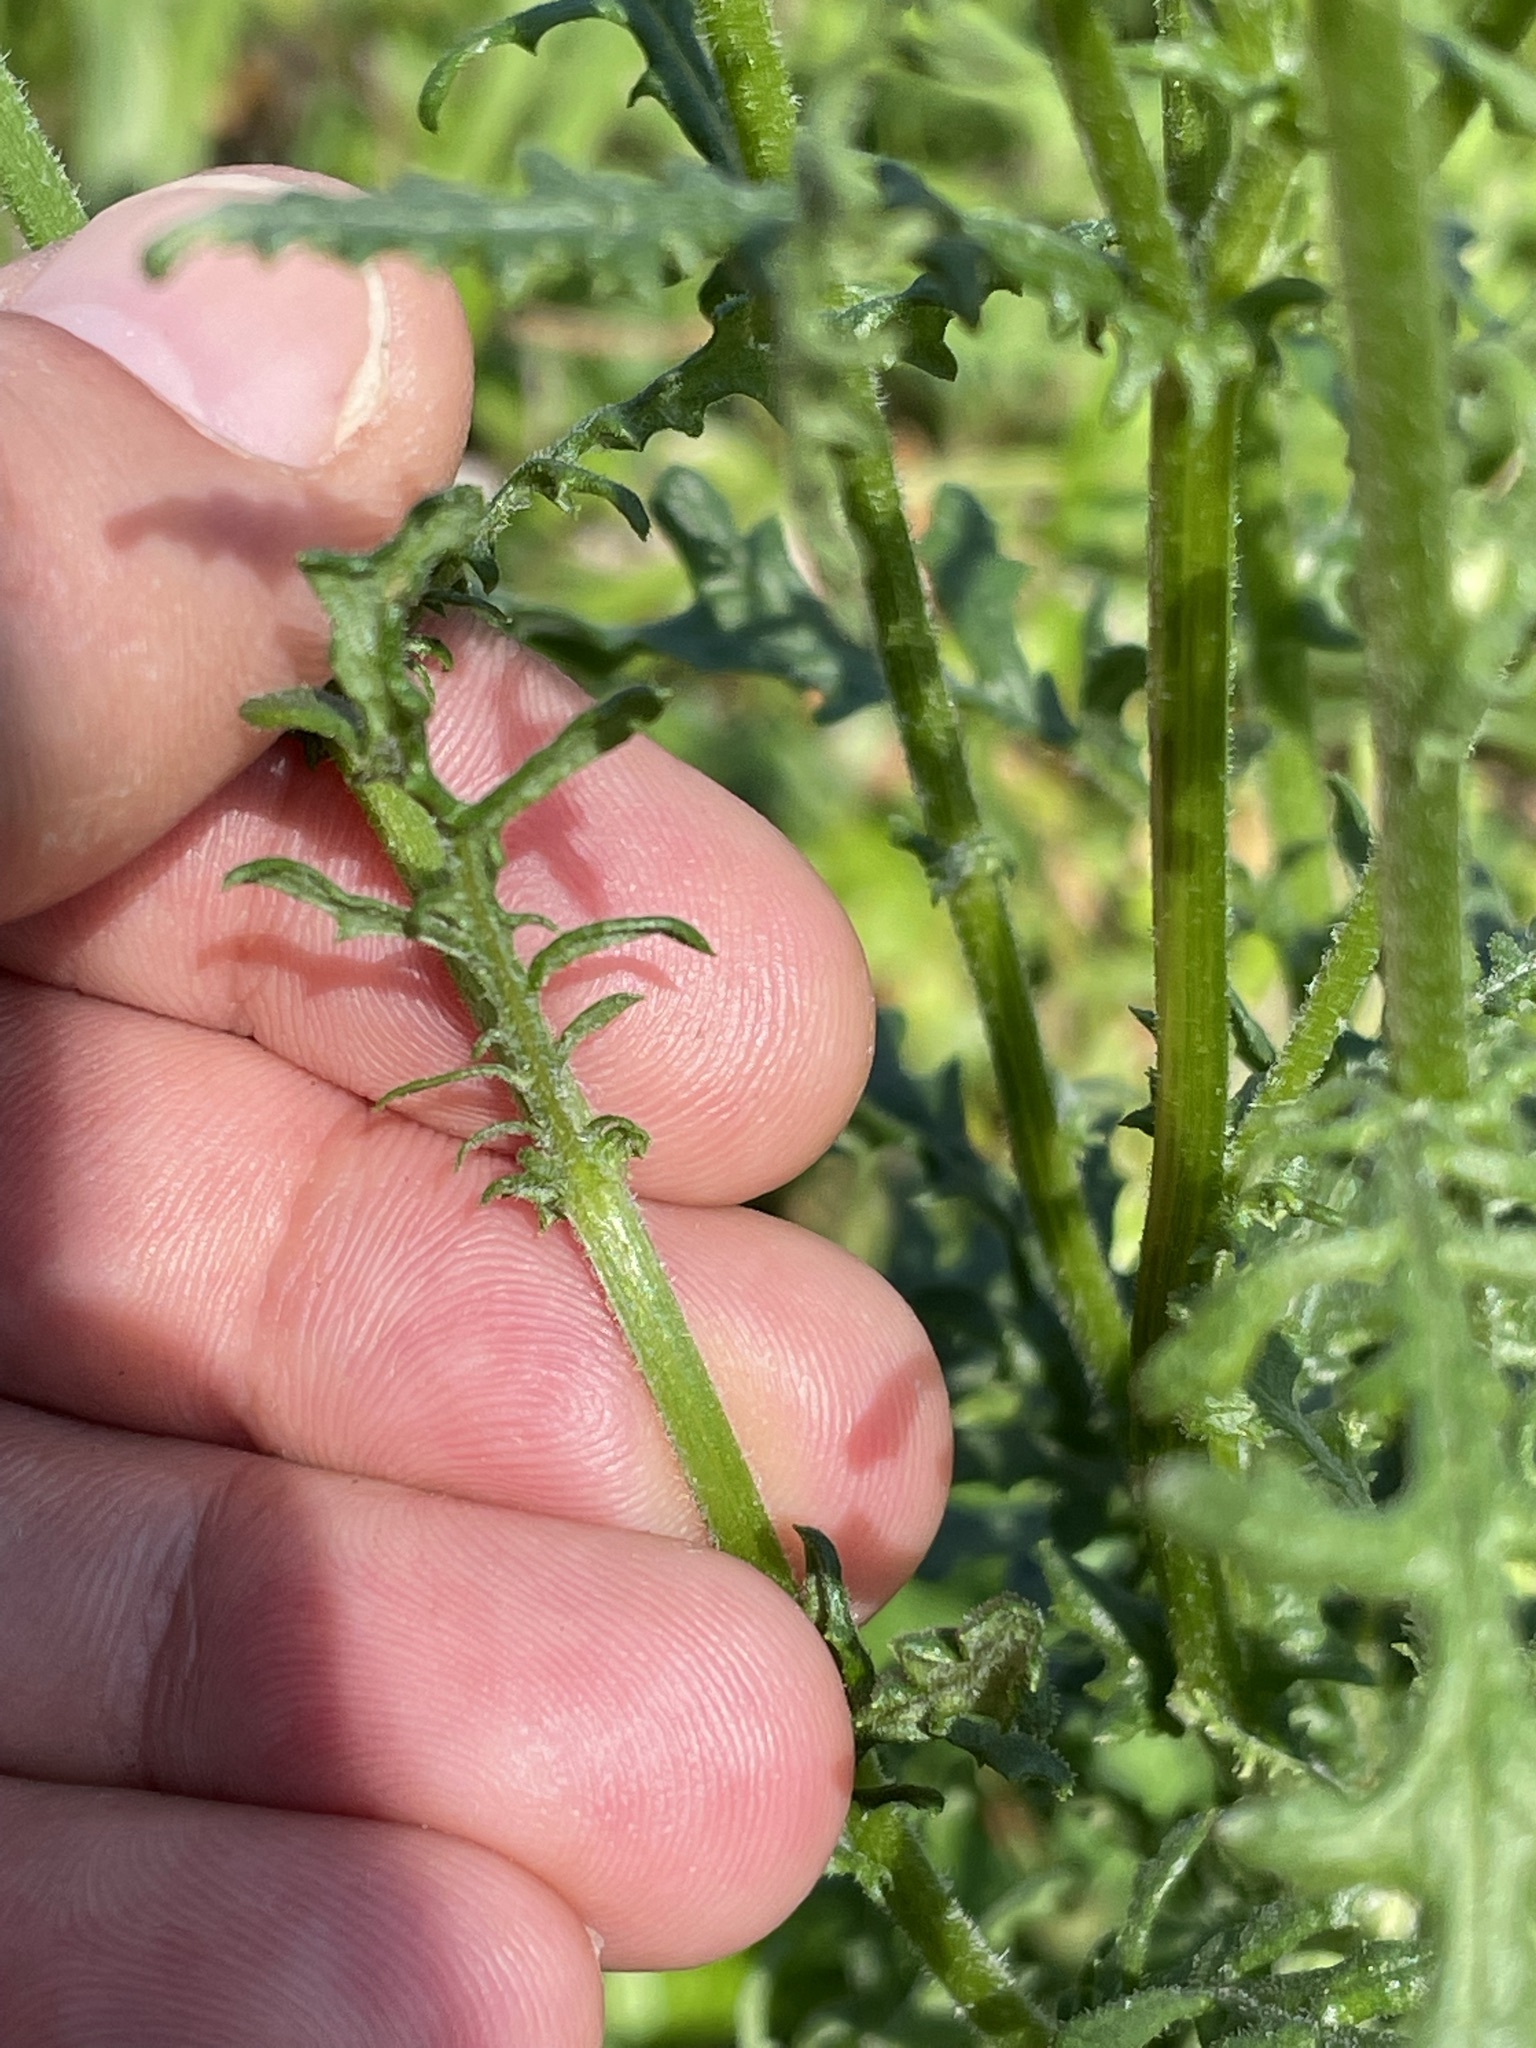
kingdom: Plantae
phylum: Tracheophyta
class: Magnoliopsida
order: Asterales
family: Asteraceae
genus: Senecio
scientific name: Senecio sylvaticus
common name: Woodland ragwort
